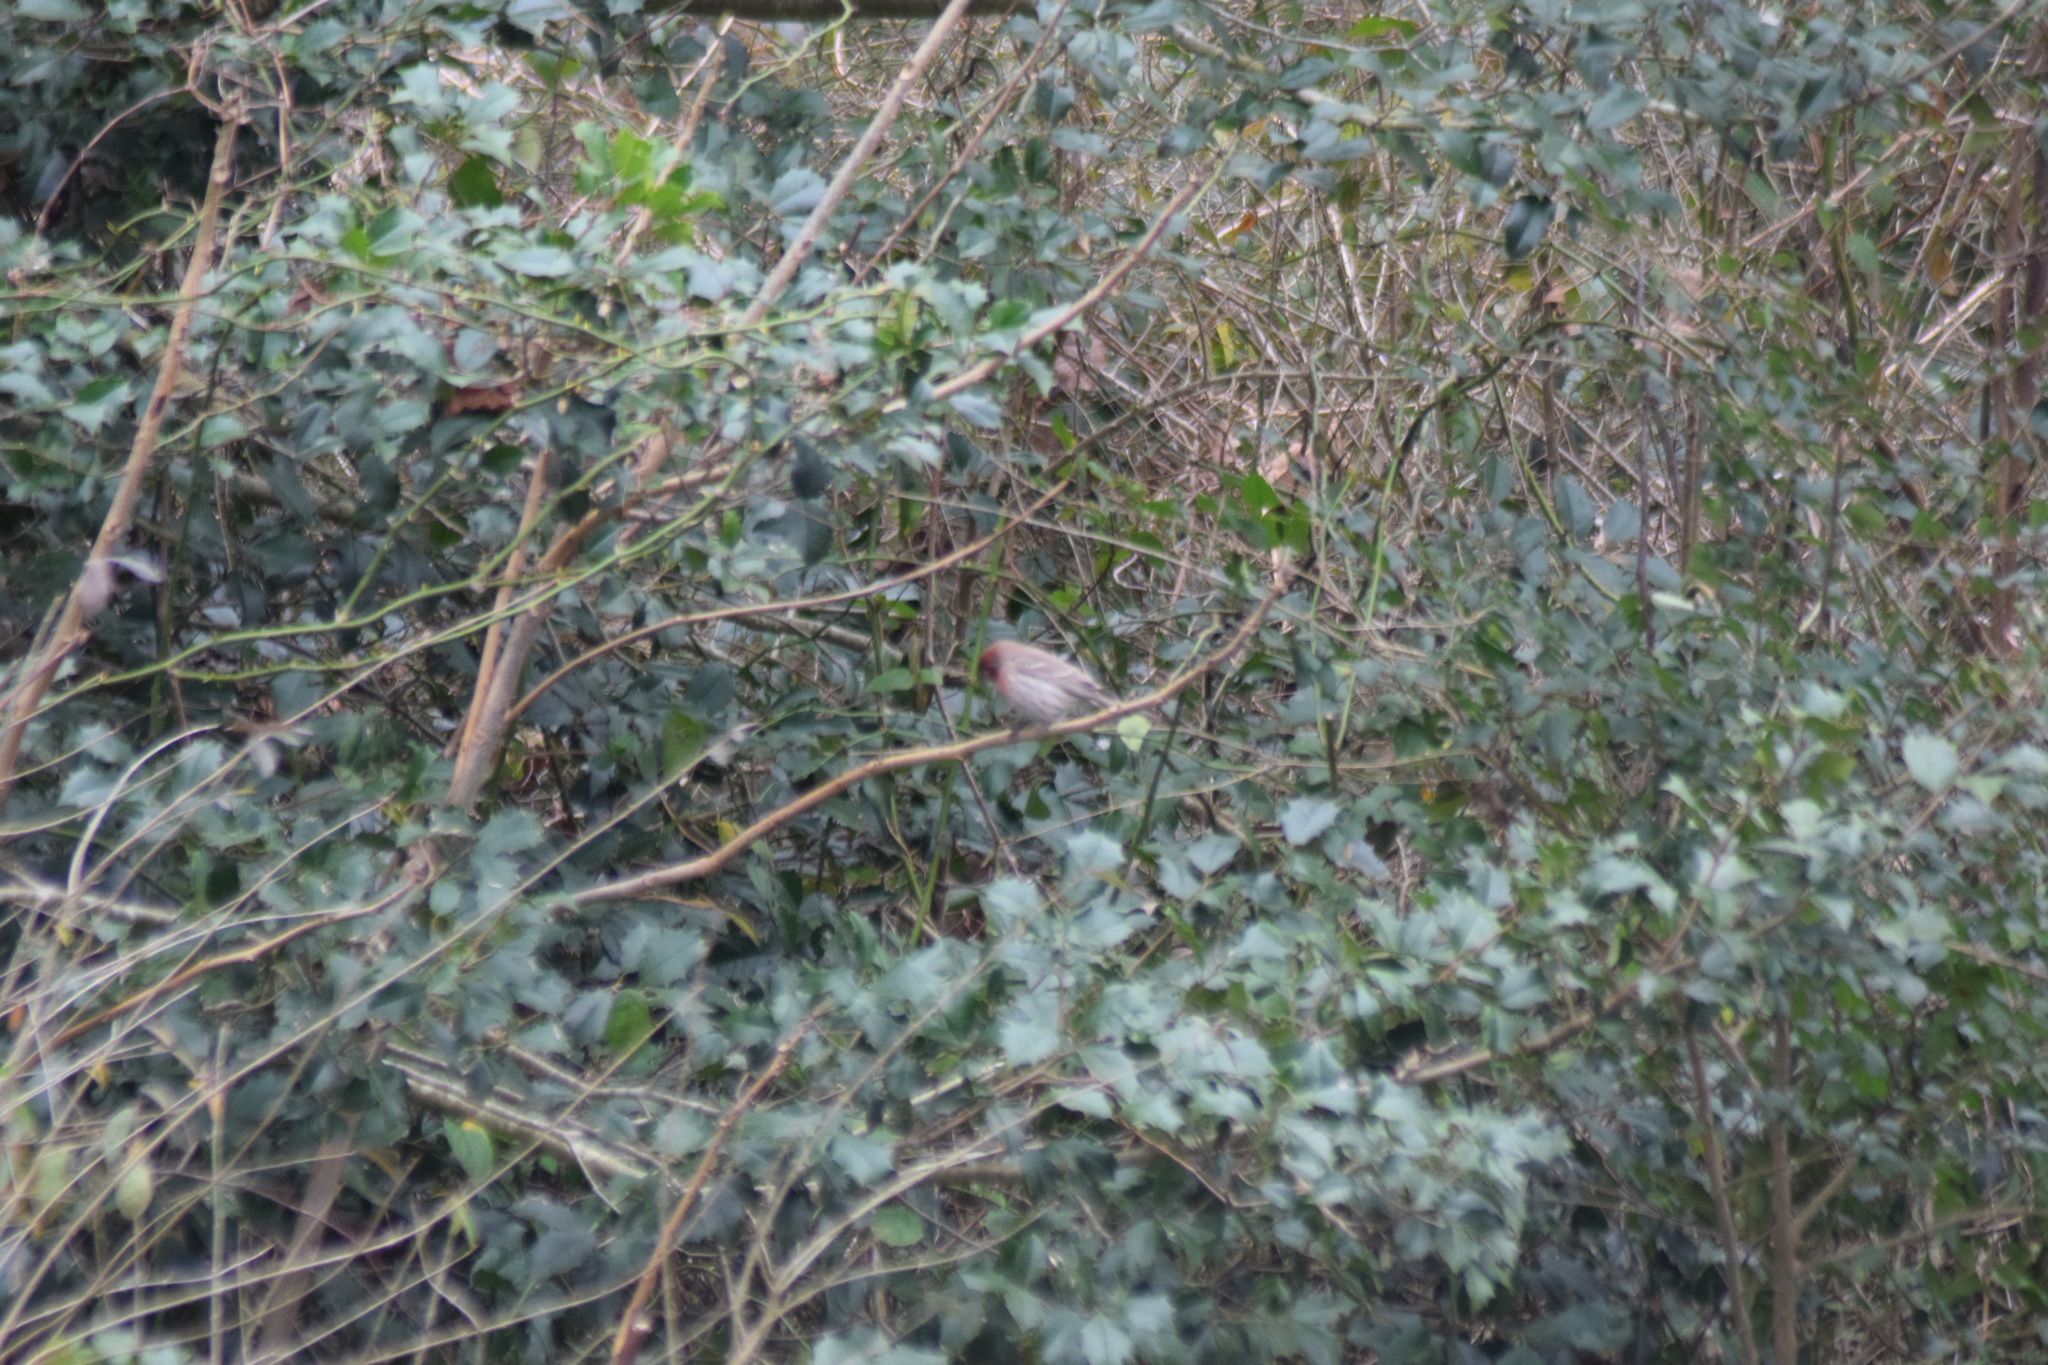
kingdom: Animalia
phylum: Chordata
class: Aves
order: Passeriformes
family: Fringillidae
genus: Haemorhous
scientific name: Haemorhous mexicanus
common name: House finch
